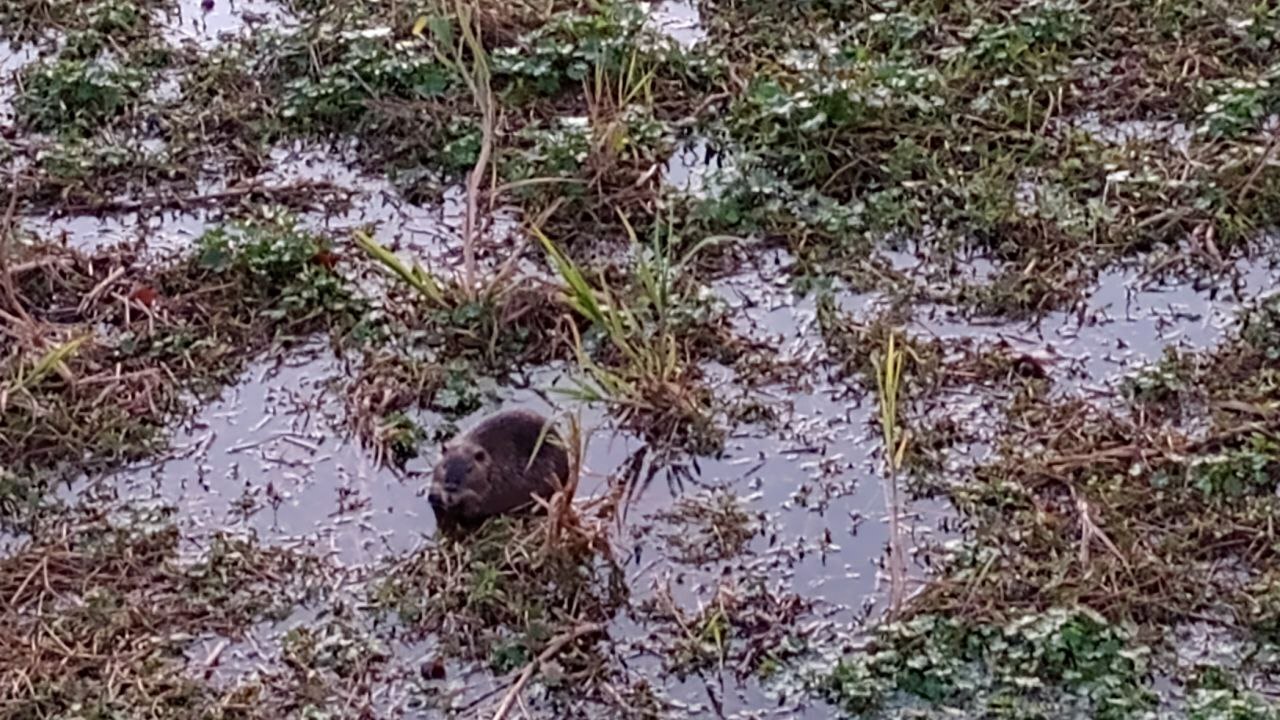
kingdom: Animalia
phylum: Chordata
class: Mammalia
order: Rodentia
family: Myocastoridae
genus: Myocastor
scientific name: Myocastor coypus
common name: Coypu
